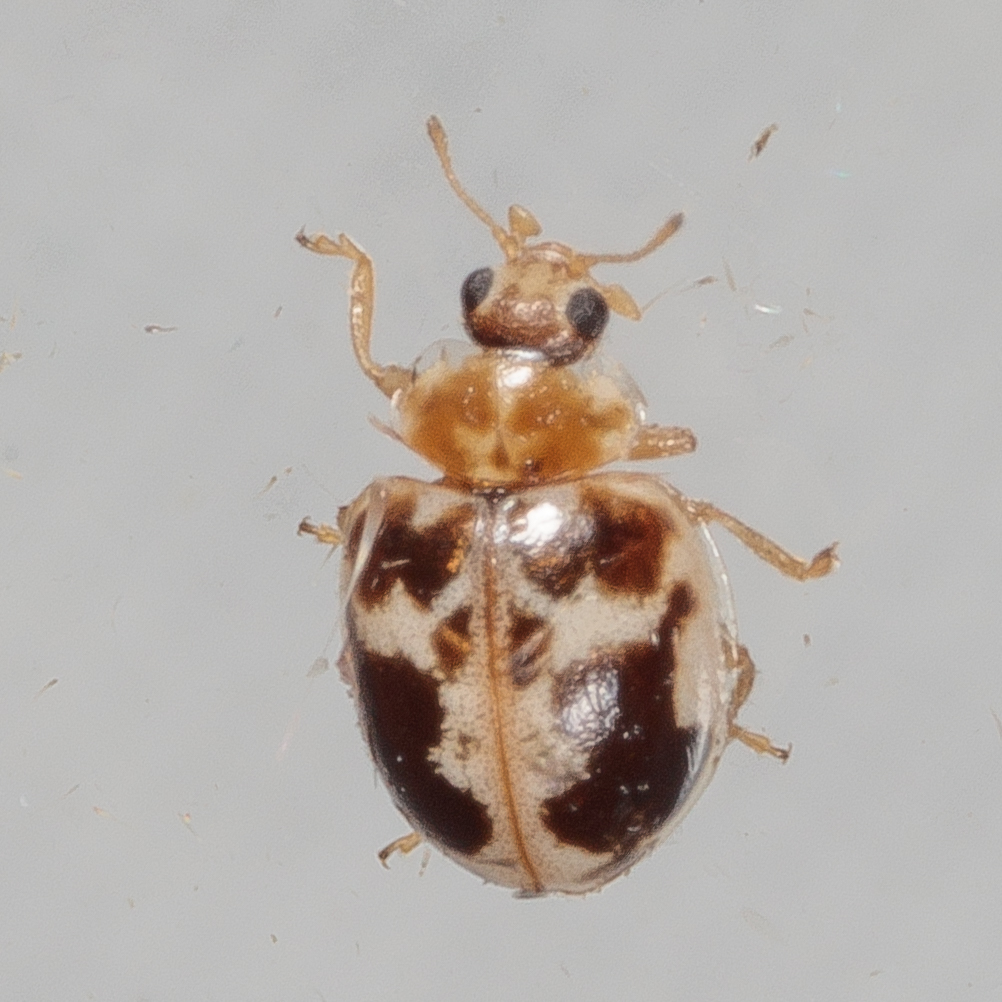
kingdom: Animalia
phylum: Arthropoda
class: Insecta
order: Coleoptera
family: Coccinellidae
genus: Psyllobora
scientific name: Psyllobora renifer
